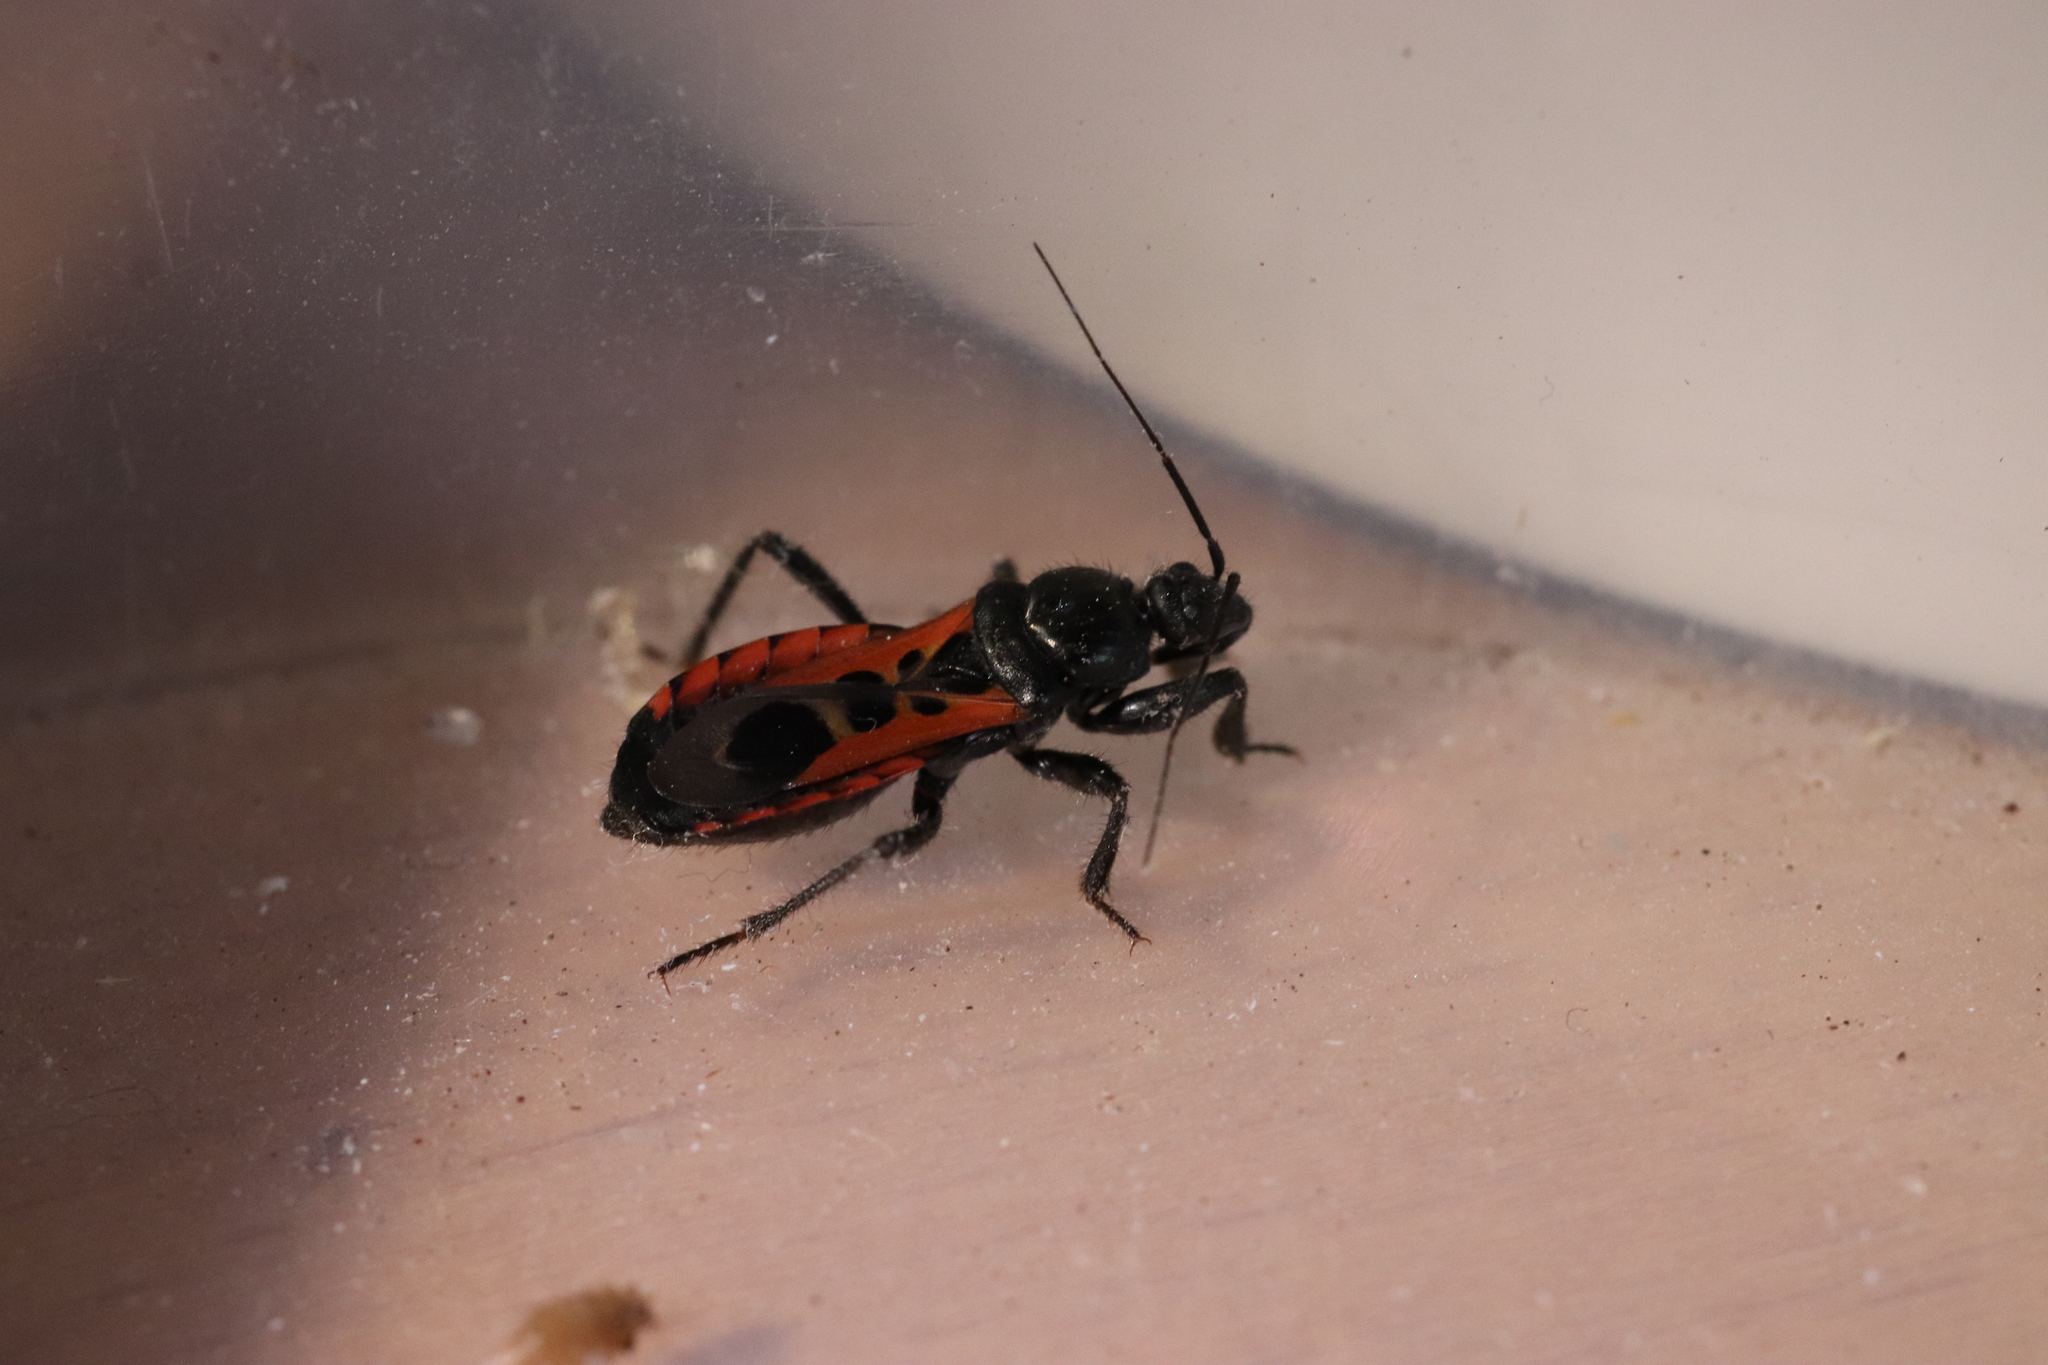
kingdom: Animalia
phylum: Arthropoda
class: Insecta
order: Hemiptera
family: Reduviidae
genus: Peirates
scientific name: Peirates stridulus
